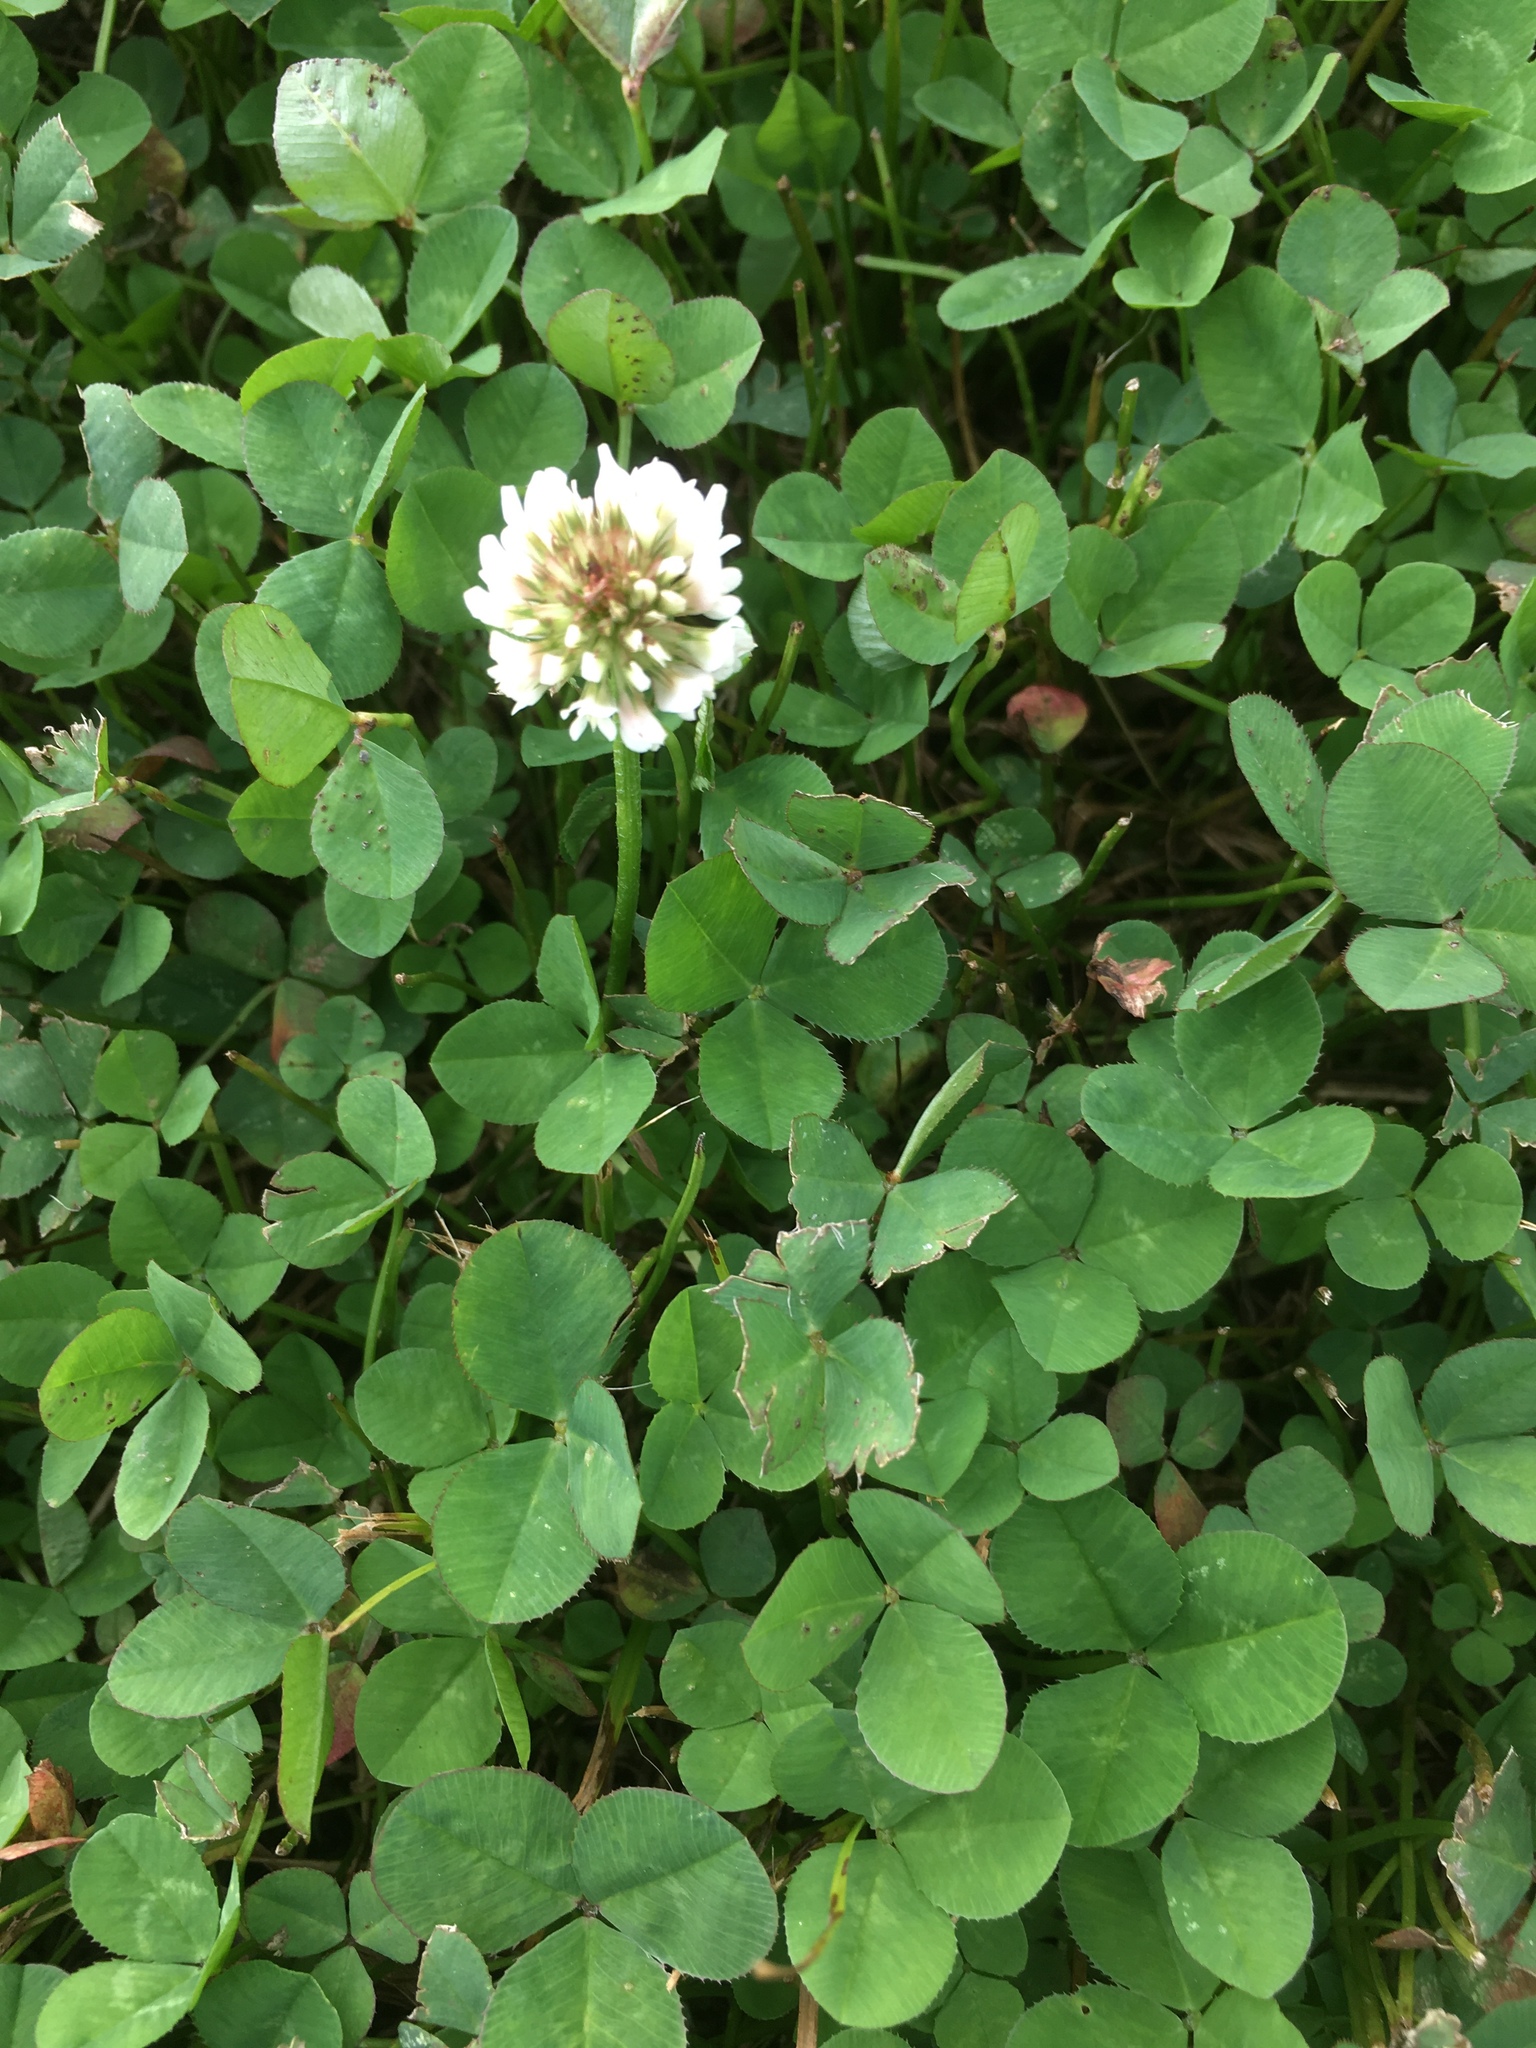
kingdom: Plantae
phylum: Tracheophyta
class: Magnoliopsida
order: Fabales
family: Fabaceae
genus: Trifolium
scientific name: Trifolium repens
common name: White clover
